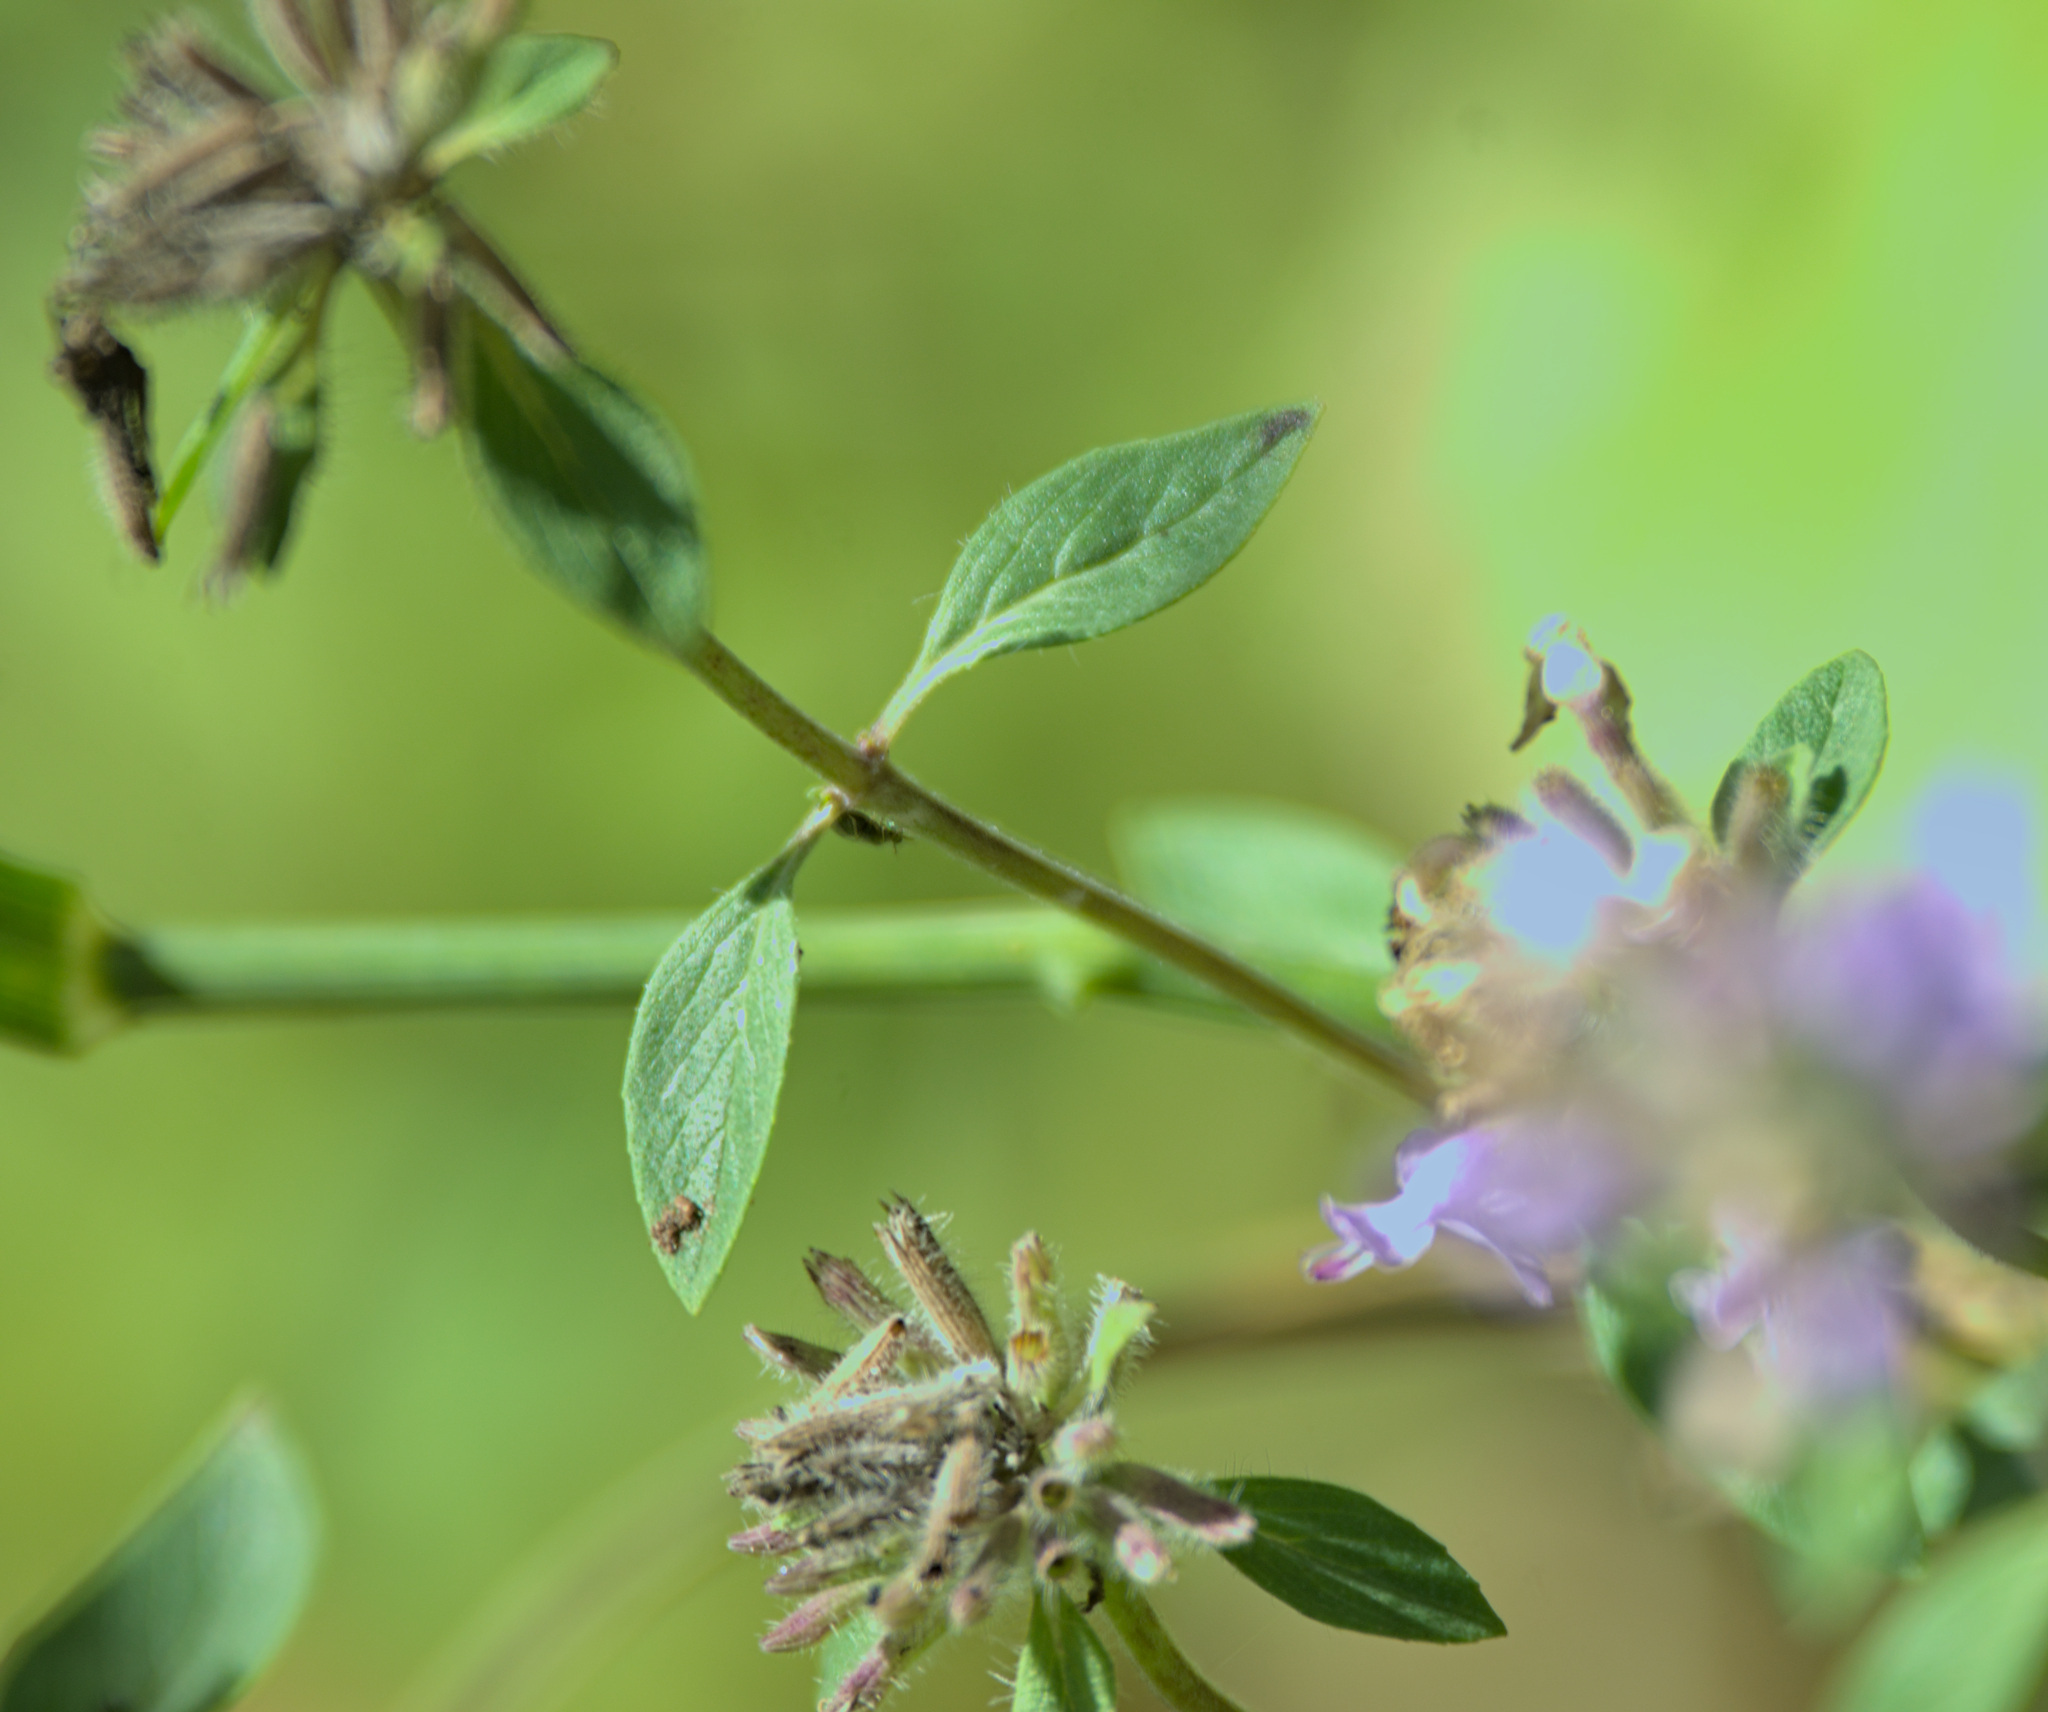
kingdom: Plantae
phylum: Tracheophyta
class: Magnoliopsida
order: Lamiales
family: Lamiaceae
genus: Ziziphora
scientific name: Ziziphora clinopodioides
